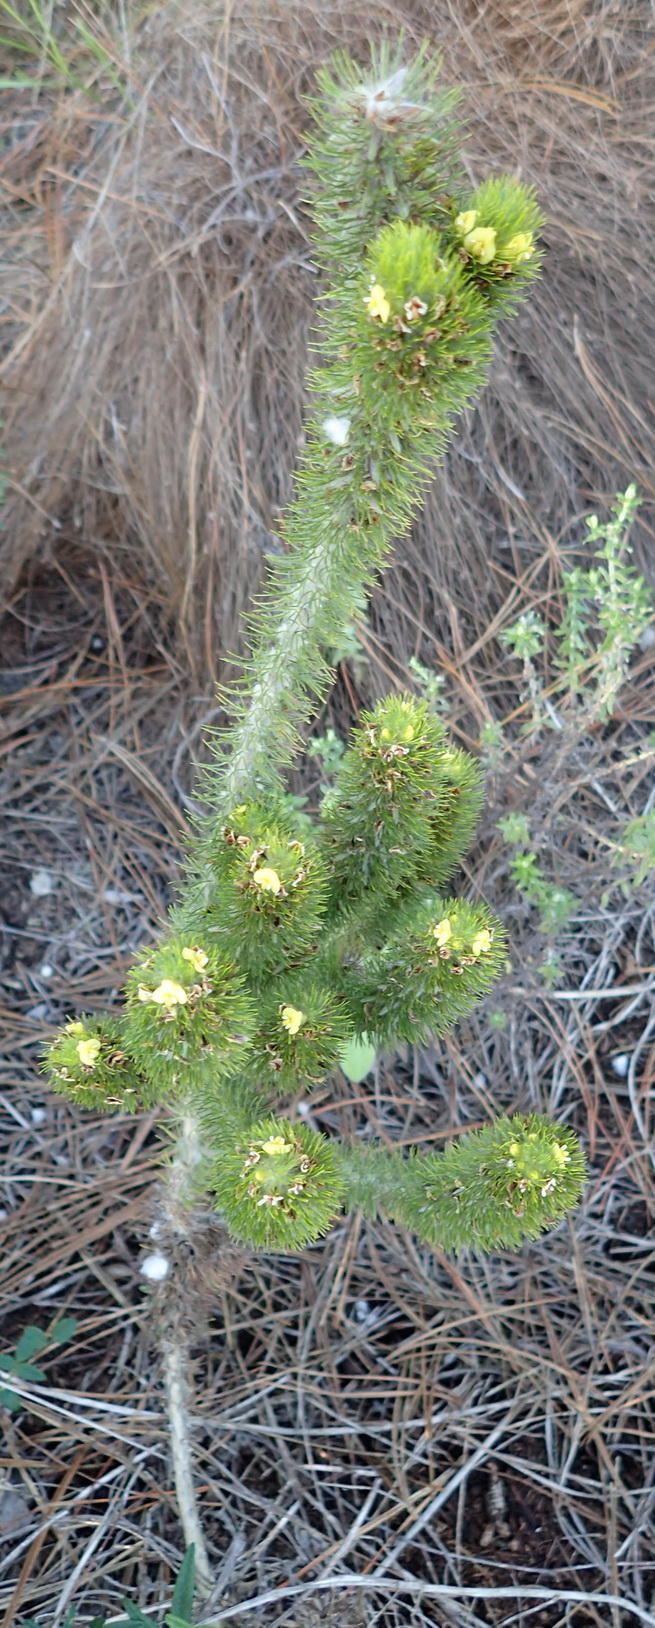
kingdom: Plantae
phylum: Tracheophyta
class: Magnoliopsida
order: Fabales
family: Fabaceae
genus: Aspalathus
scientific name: Aspalathus alopecurus
